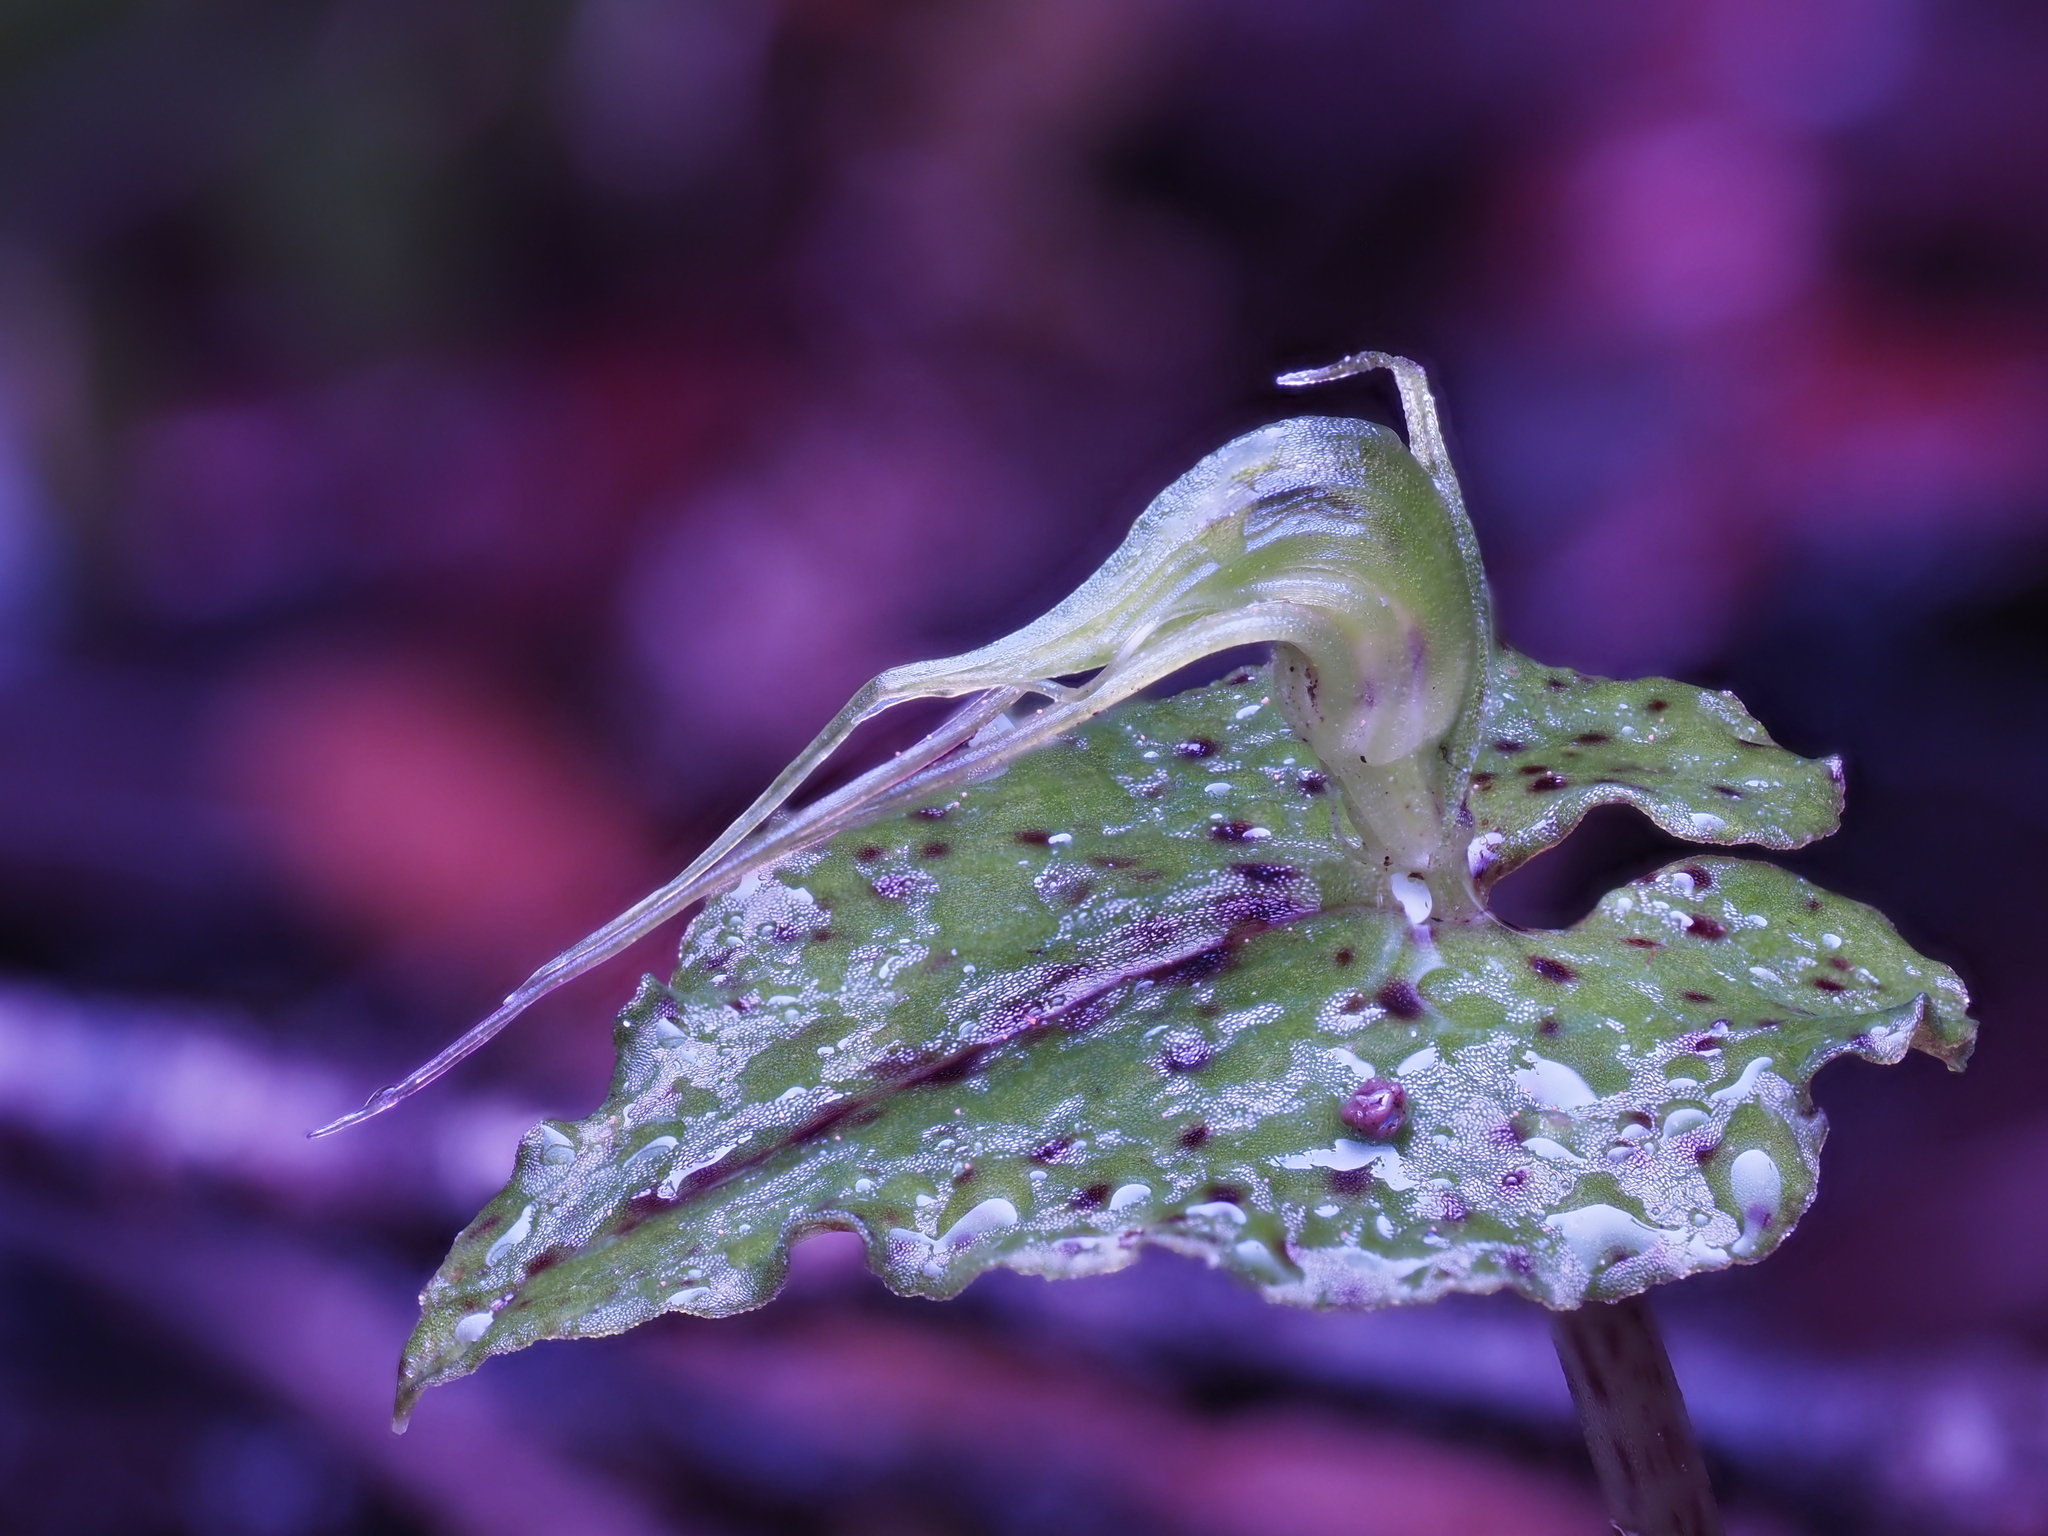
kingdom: Plantae
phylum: Tracheophyta
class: Liliopsida
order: Asparagales
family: Orchidaceae
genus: Corybas
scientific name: Corybas acuminatus
